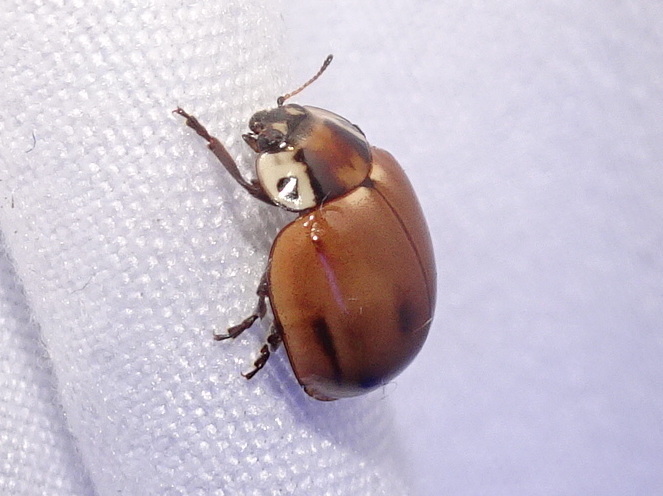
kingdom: Animalia
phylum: Arthropoda
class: Insecta
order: Coleoptera
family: Coccinellidae
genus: Myzia
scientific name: Myzia pullata
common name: Streaked lady beetle
